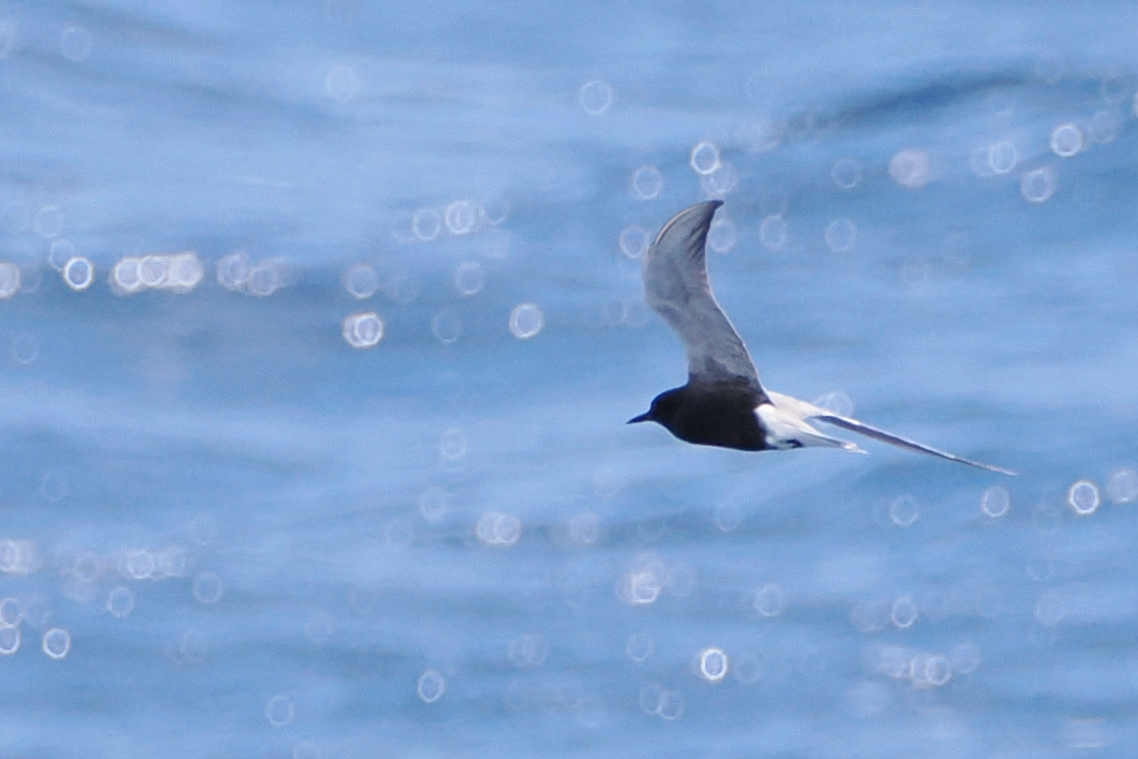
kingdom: Animalia
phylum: Chordata
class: Aves
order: Charadriiformes
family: Laridae
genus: Chlidonias
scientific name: Chlidonias niger
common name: Black tern
